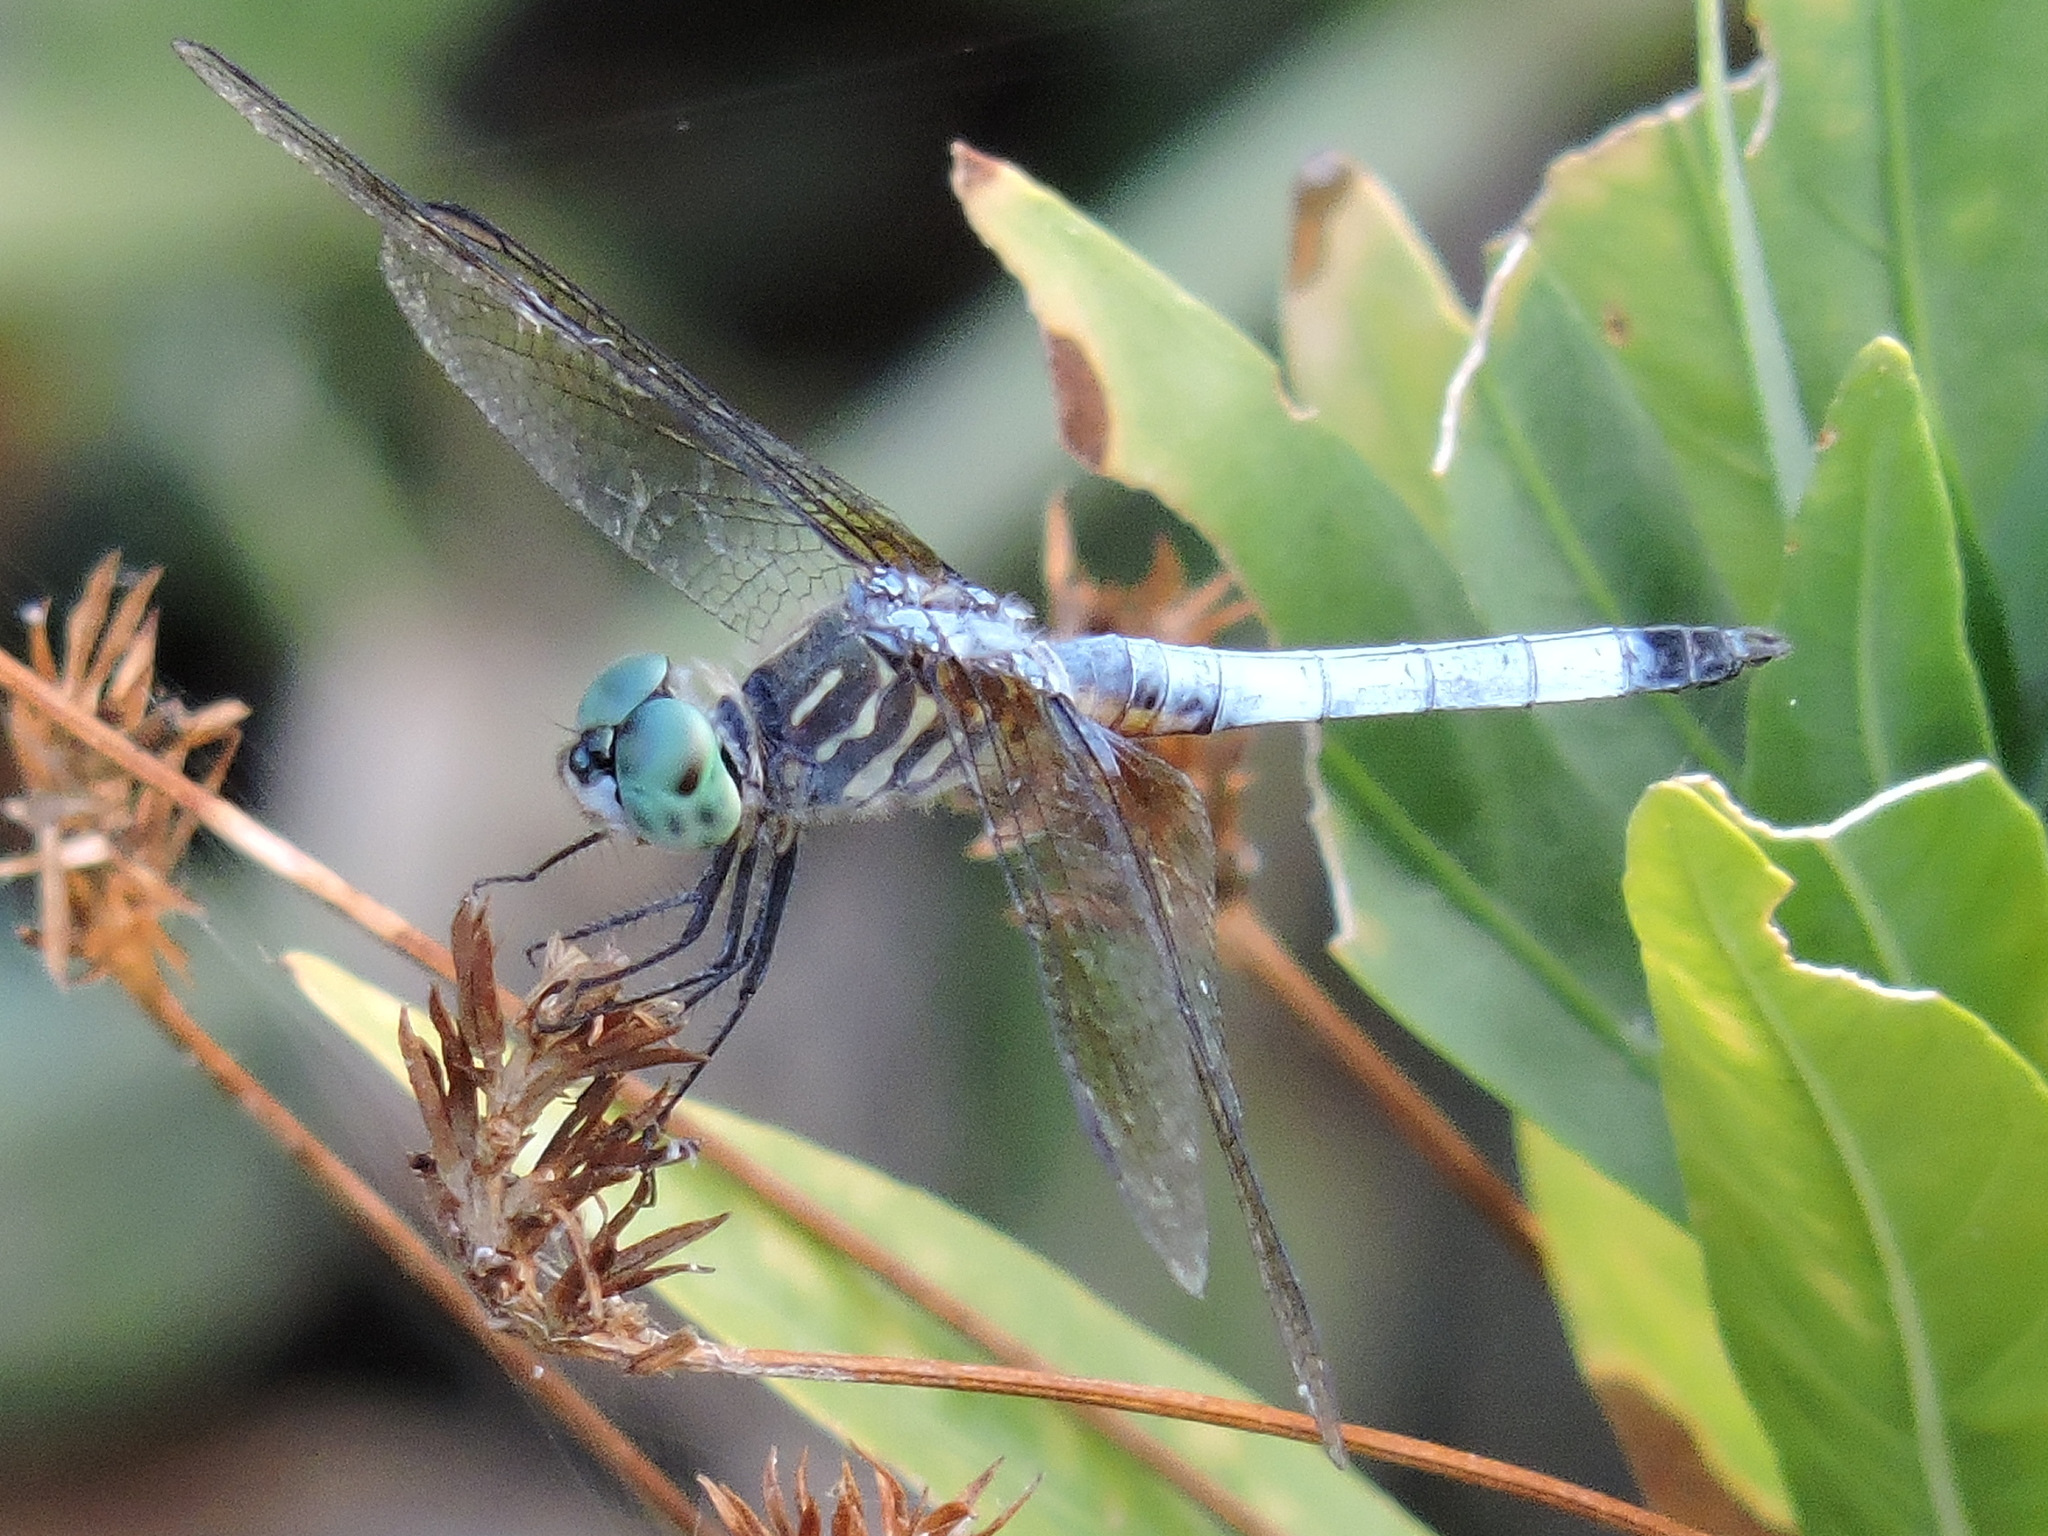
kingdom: Animalia
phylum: Arthropoda
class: Insecta
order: Odonata
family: Libellulidae
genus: Pachydiplax
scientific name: Pachydiplax longipennis
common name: Blue dasher
